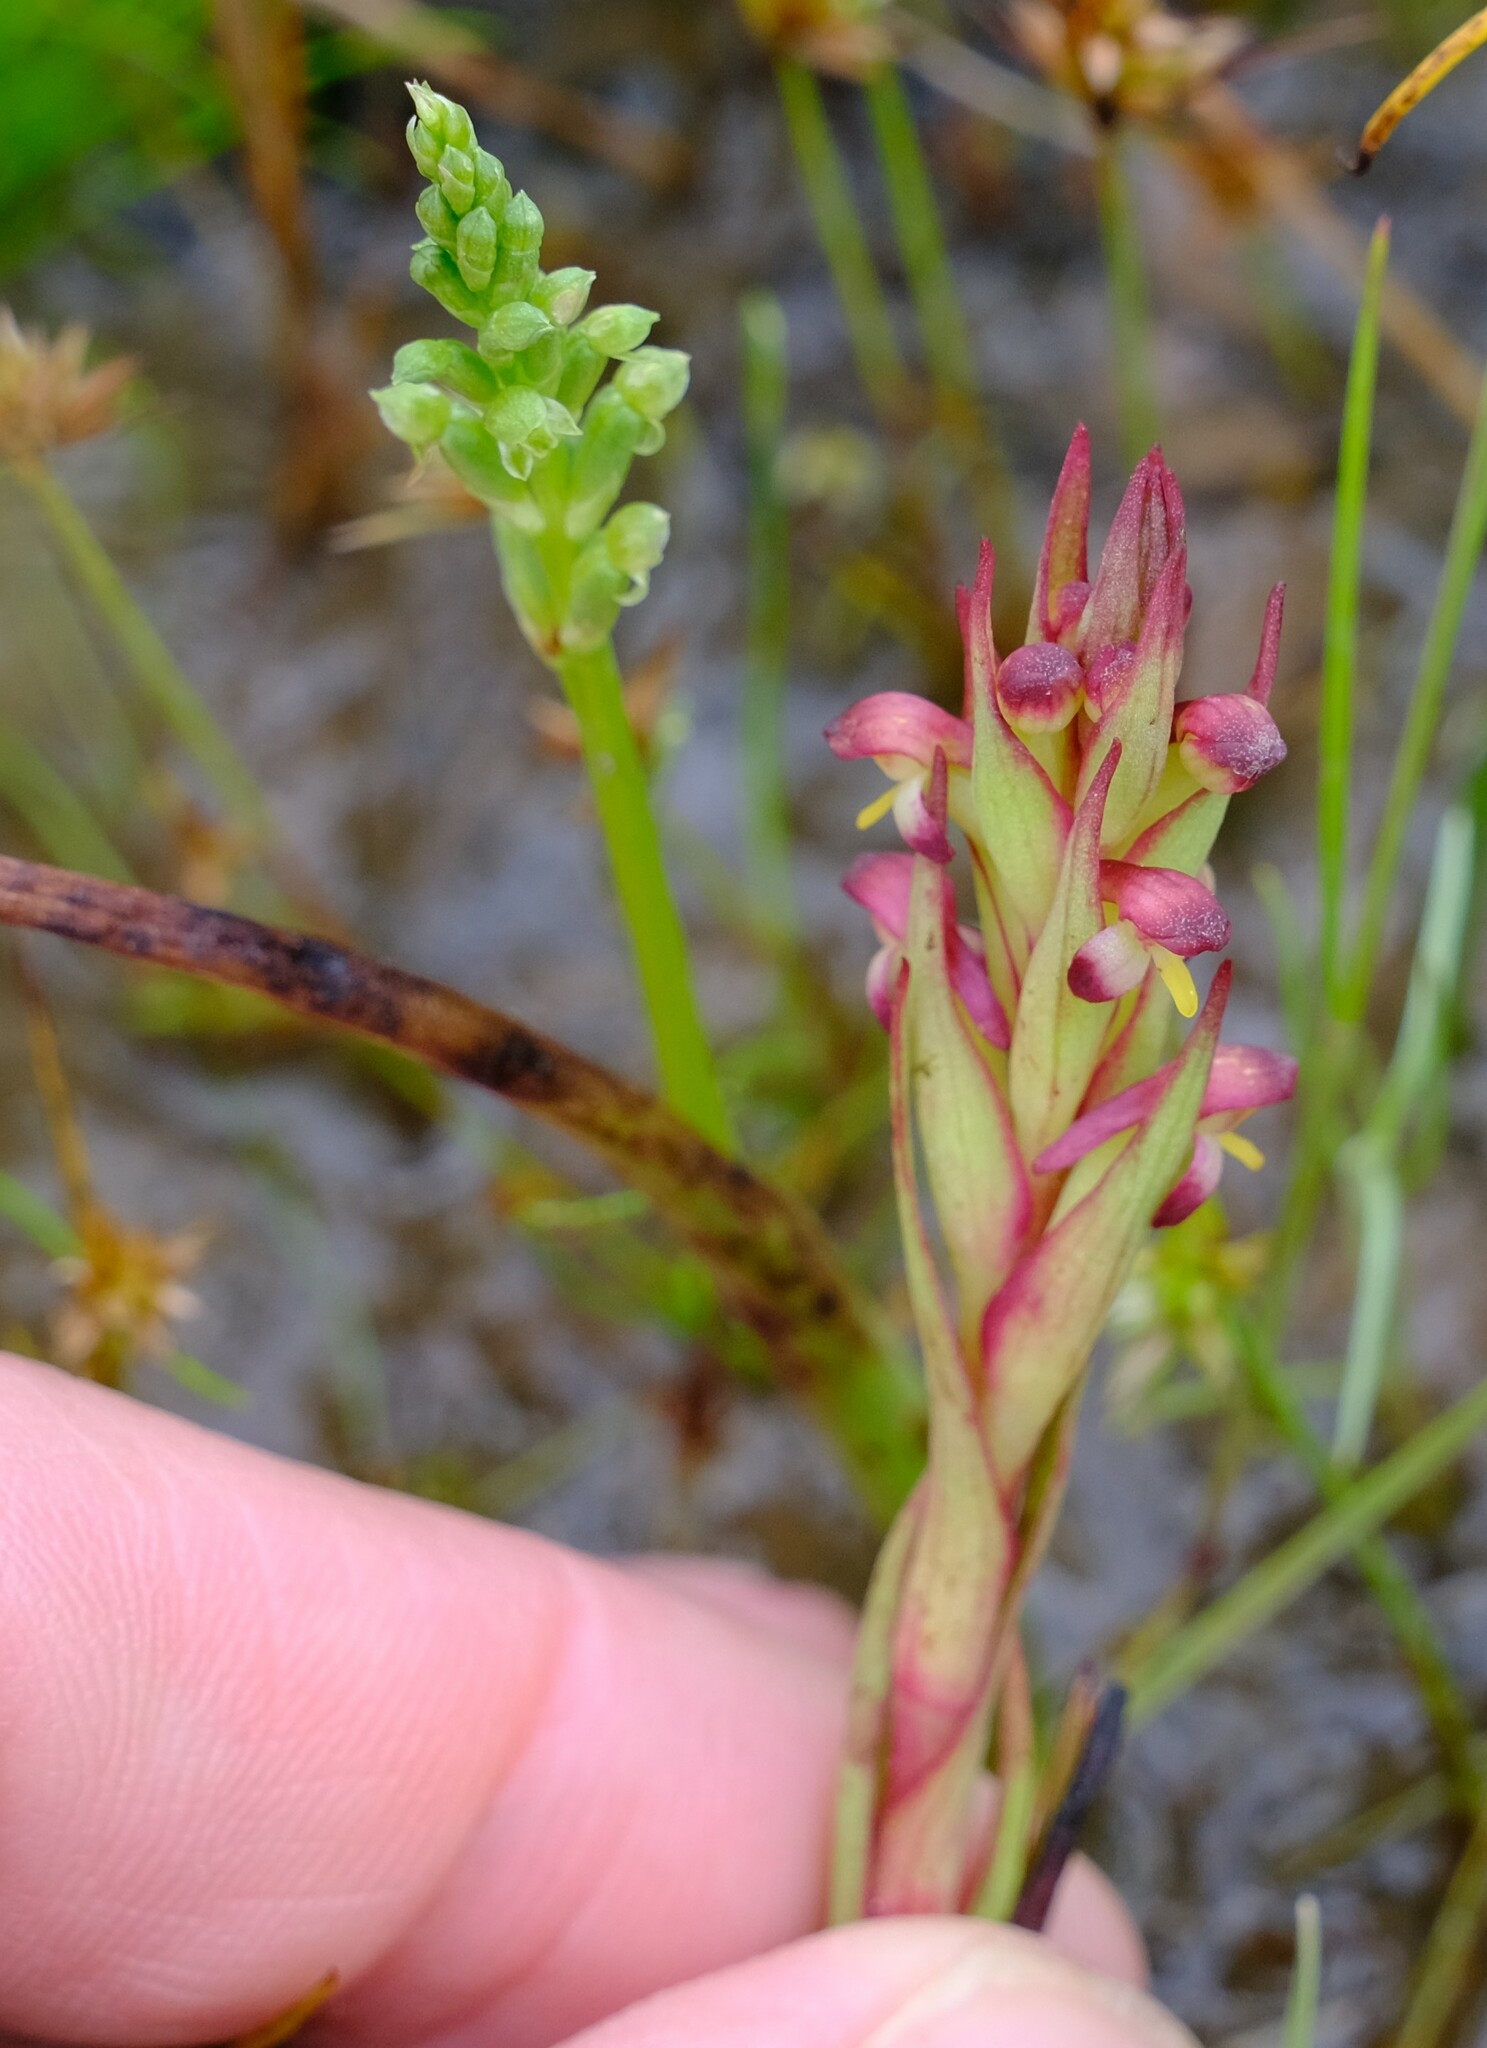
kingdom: Plantae
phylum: Tracheophyta
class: Liliopsida
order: Asparagales
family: Orchidaceae
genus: Disa
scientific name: Disa bracteata
